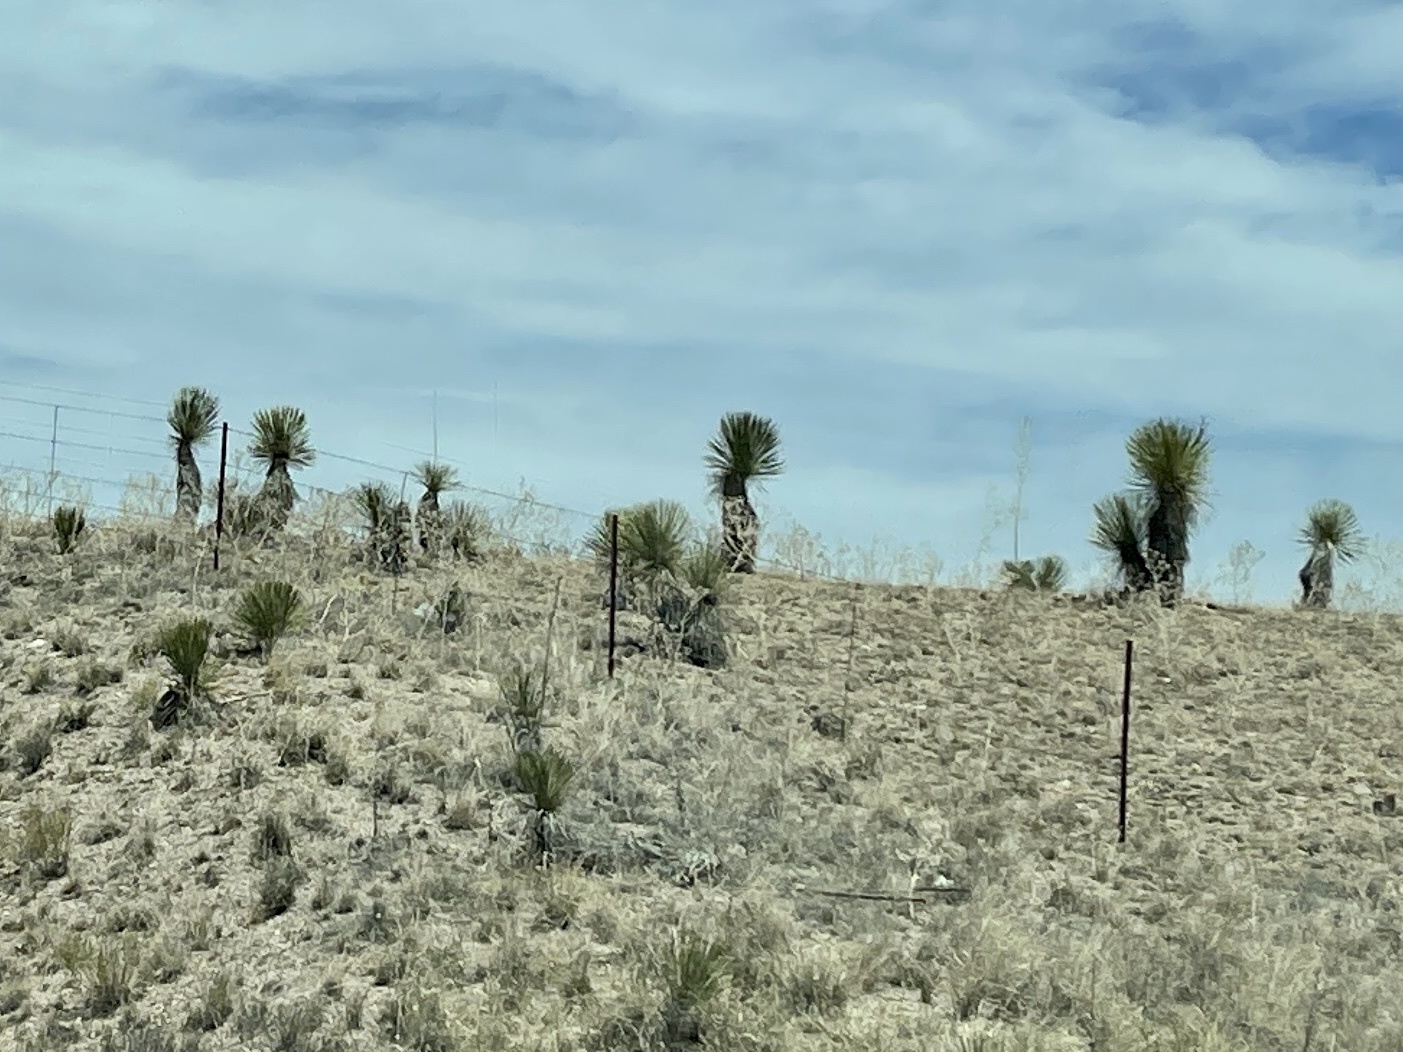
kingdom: Plantae
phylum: Tracheophyta
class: Liliopsida
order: Asparagales
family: Asparagaceae
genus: Yucca
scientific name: Yucca elata
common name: Palmella
